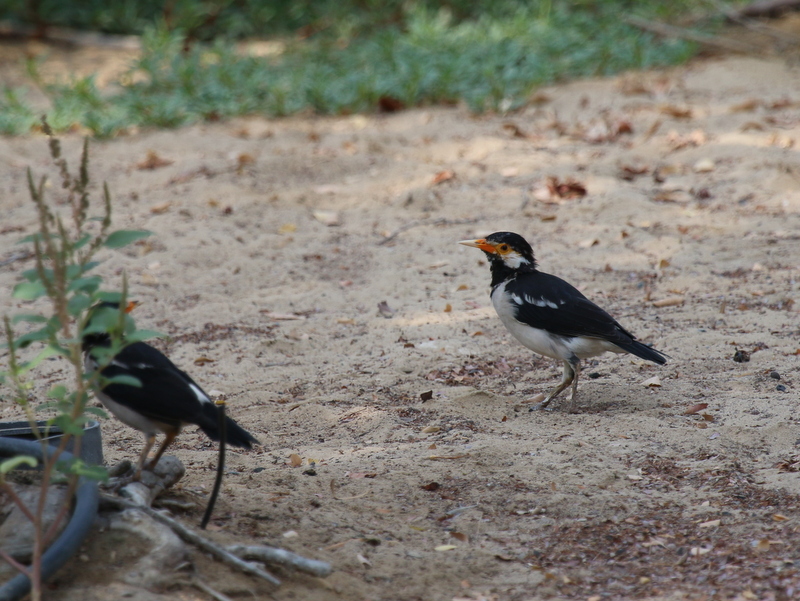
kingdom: Animalia
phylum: Chordata
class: Aves
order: Passeriformes
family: Sturnidae
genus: Gracupica
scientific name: Gracupica contra
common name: Pied myna
